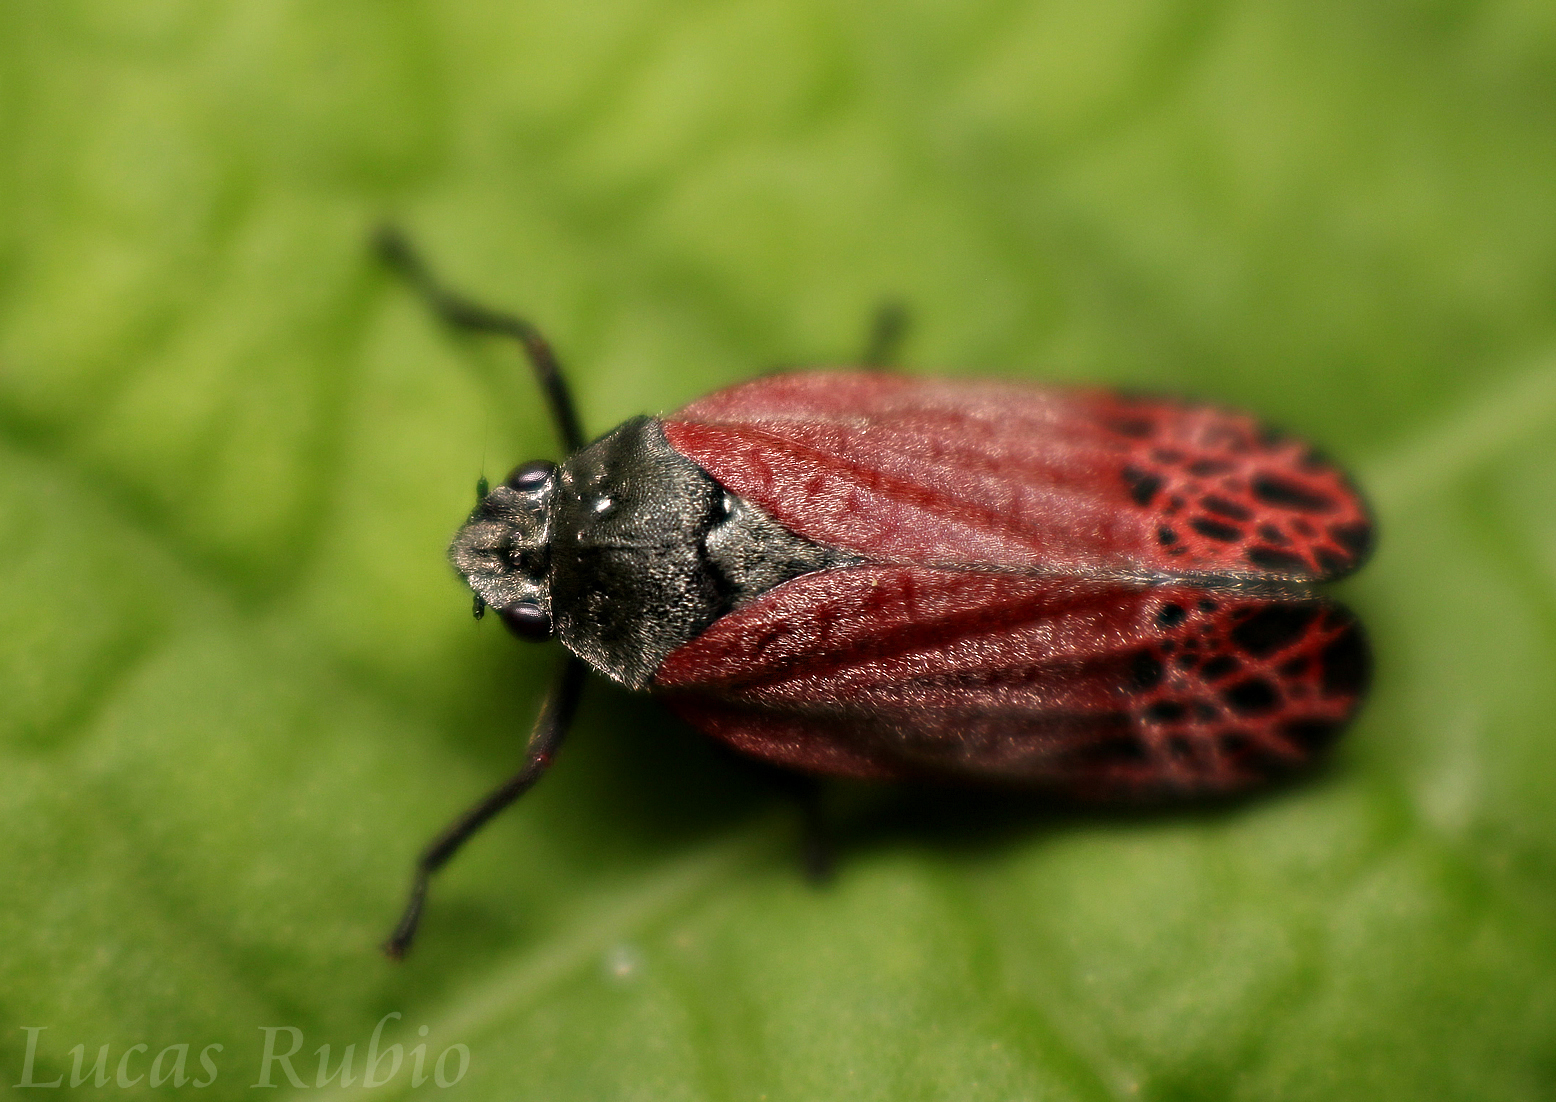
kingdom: Animalia
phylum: Arthropoda
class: Insecta
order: Hemiptera
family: Cercopidae
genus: Mahanarva
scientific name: Mahanarva rubripennis
